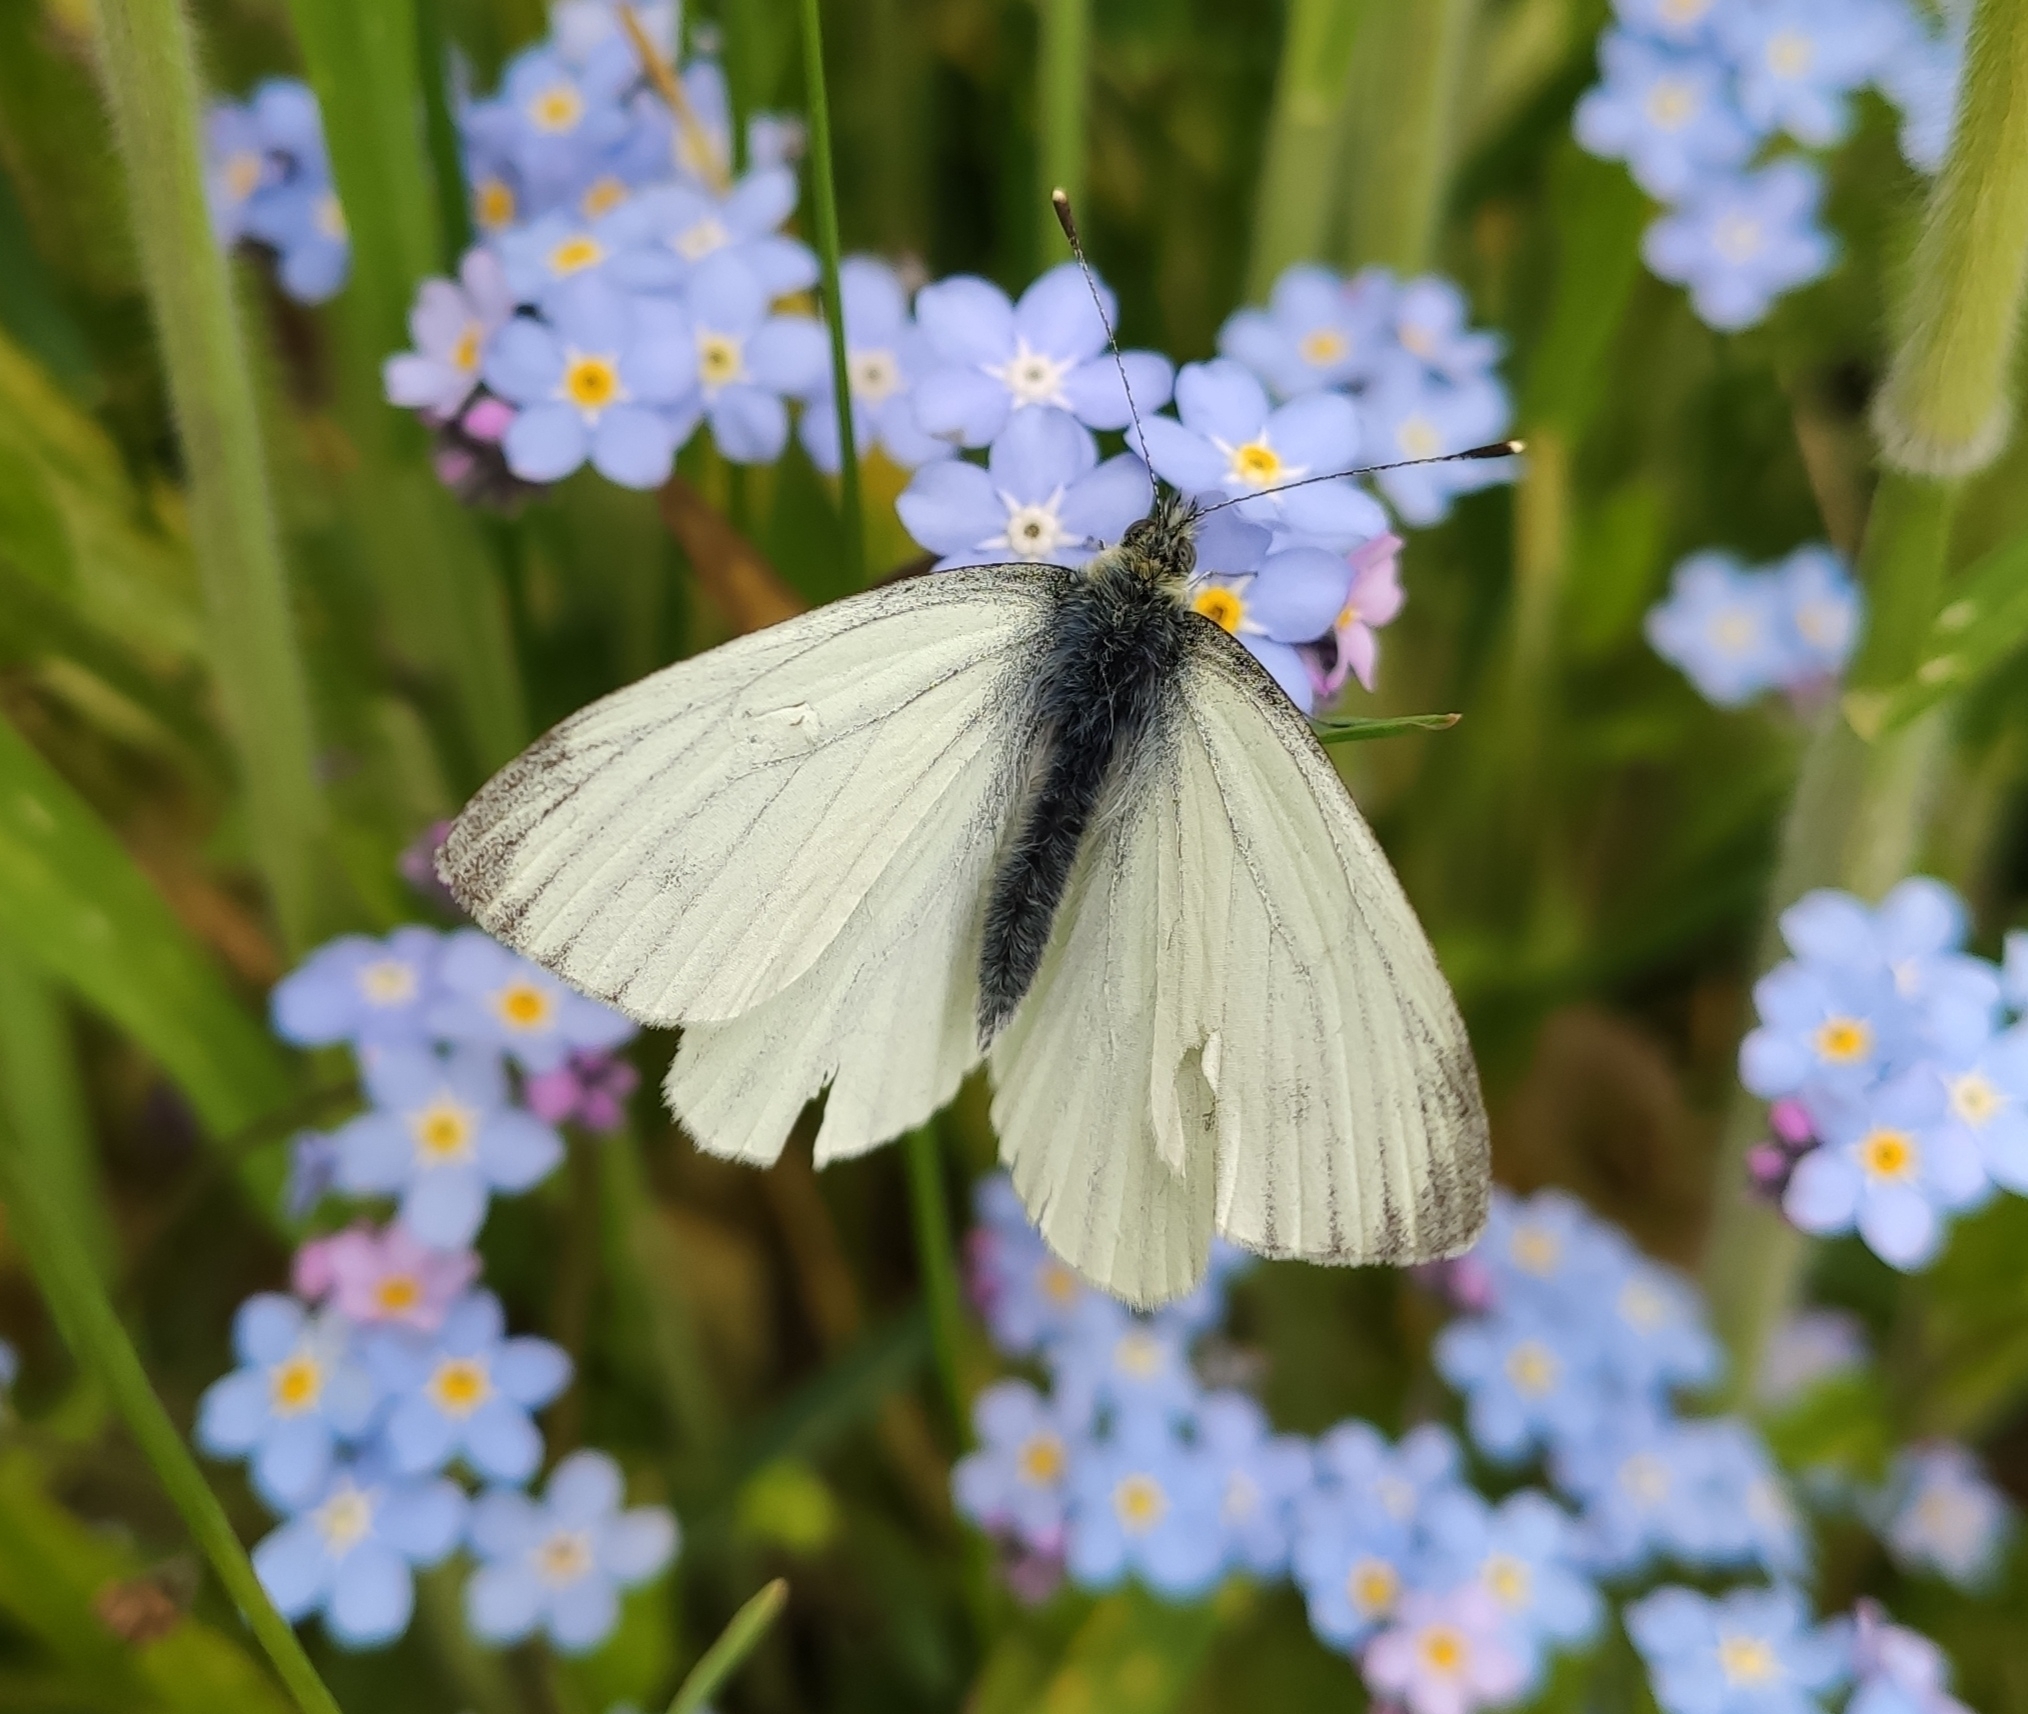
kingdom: Animalia
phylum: Arthropoda
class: Insecta
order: Lepidoptera
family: Pieridae
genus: Pieris
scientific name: Pieris napi
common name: Green-veined white
